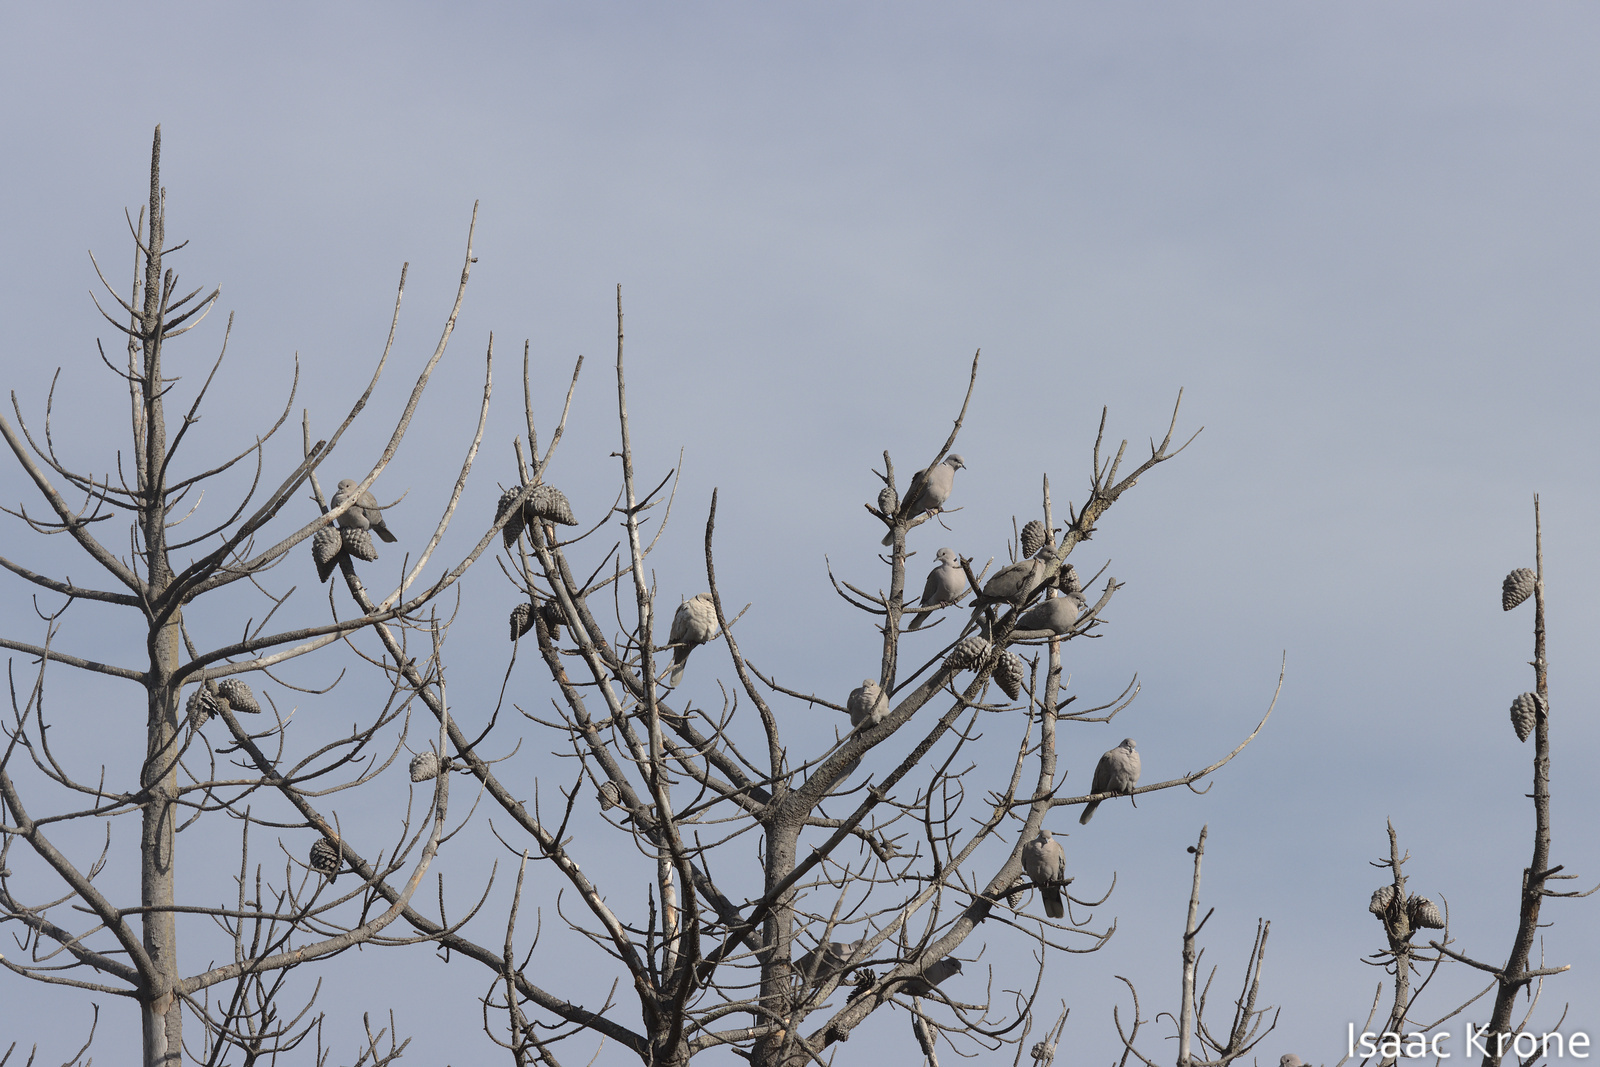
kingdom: Animalia
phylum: Chordata
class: Aves
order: Columbiformes
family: Columbidae
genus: Streptopelia
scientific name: Streptopelia decaocto
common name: Eurasian collared dove
